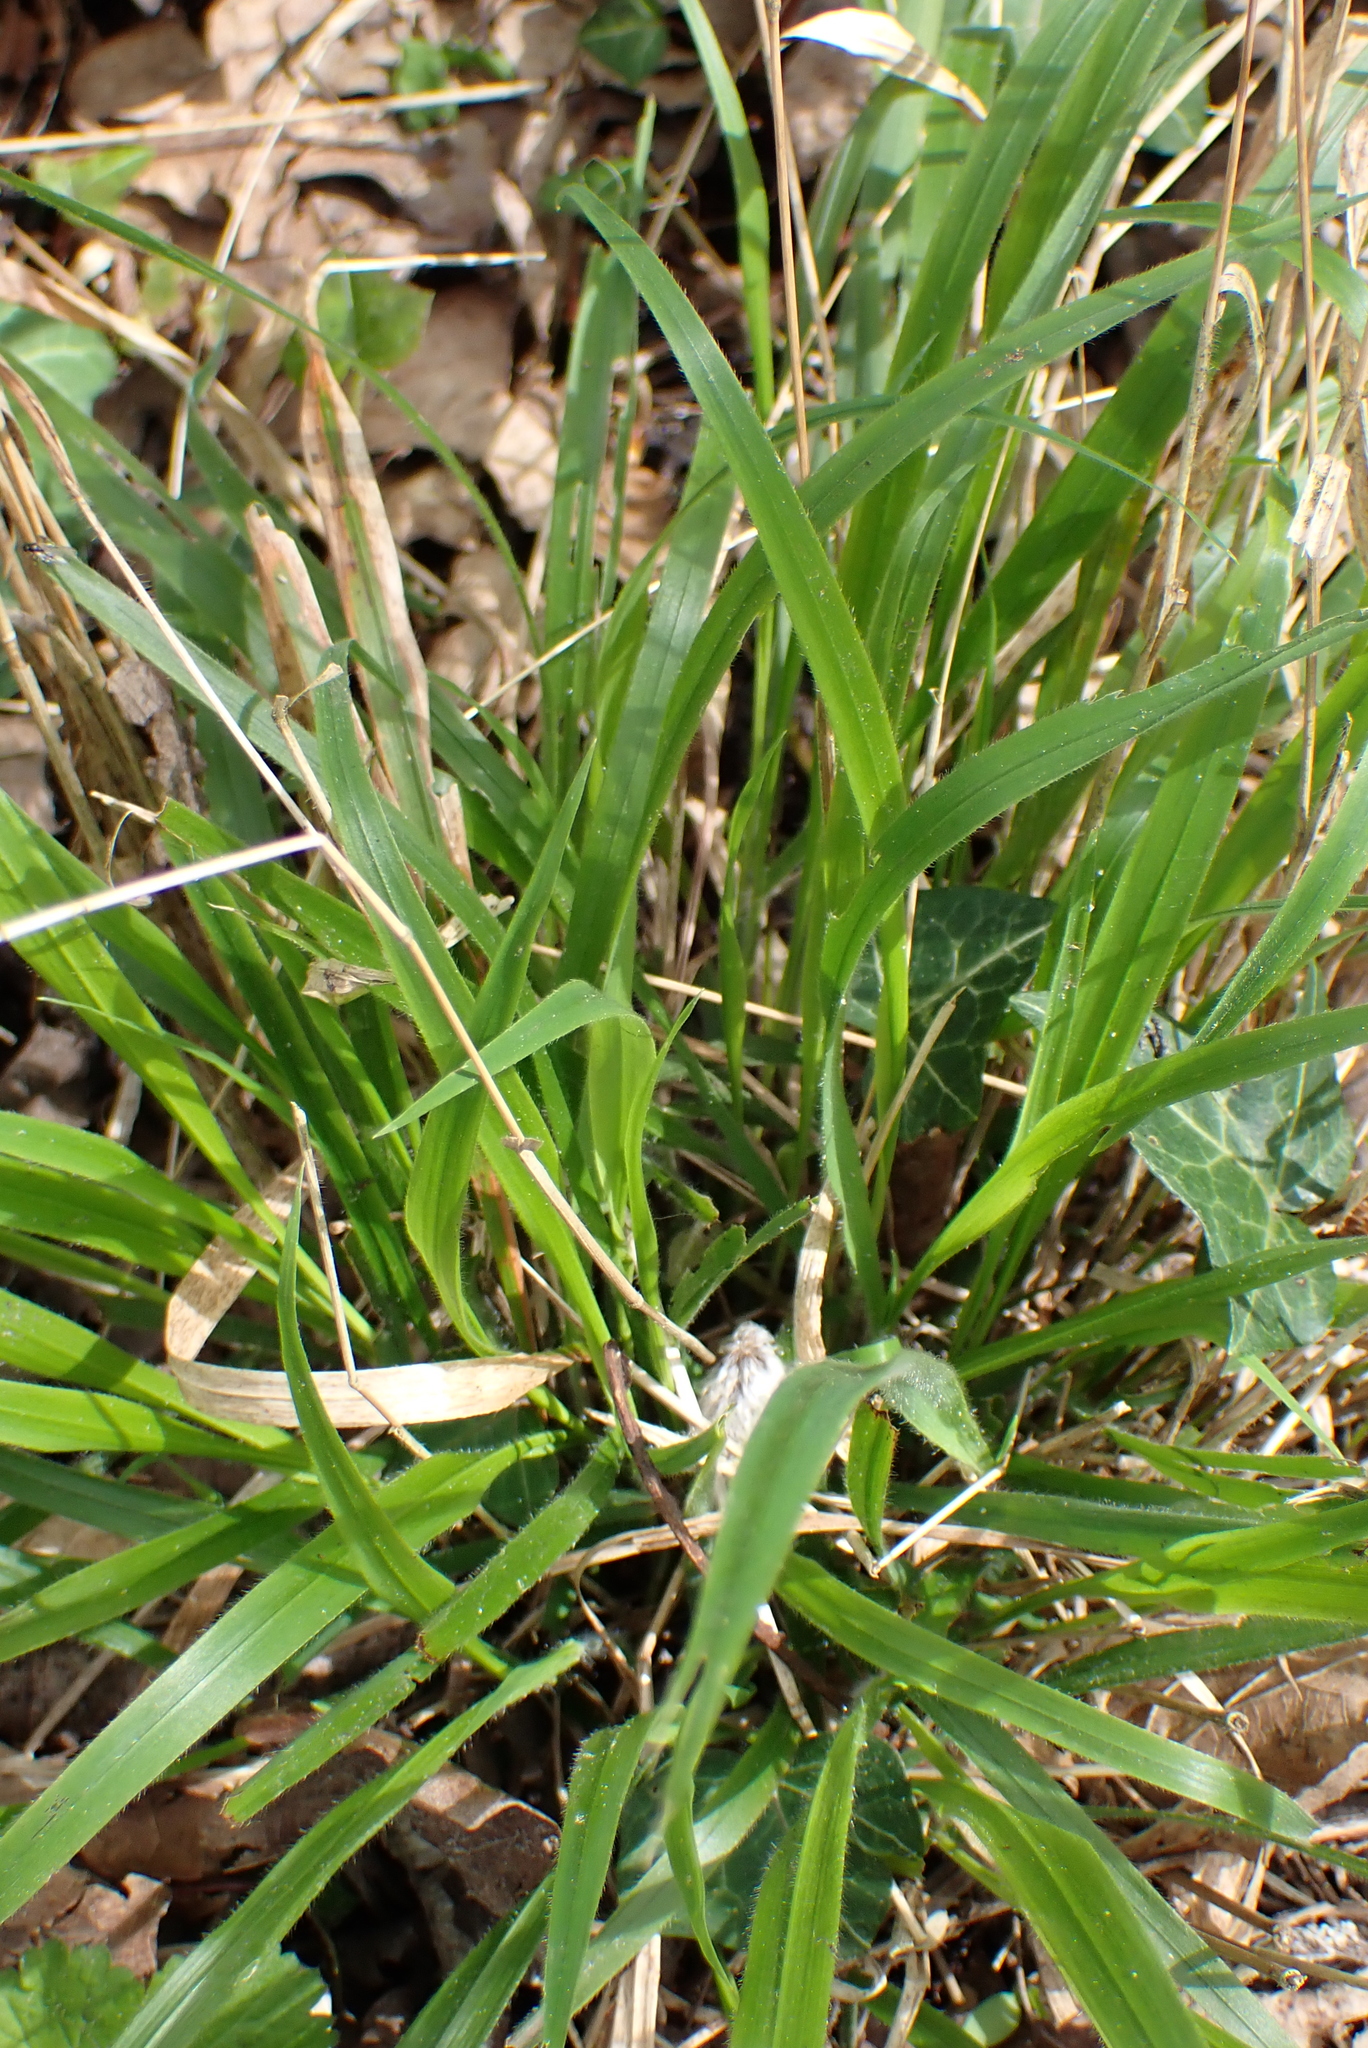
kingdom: Plantae
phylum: Tracheophyta
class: Liliopsida
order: Poales
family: Poaceae
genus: Brachypodium
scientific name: Brachypodium sylvaticum
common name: False-brome
